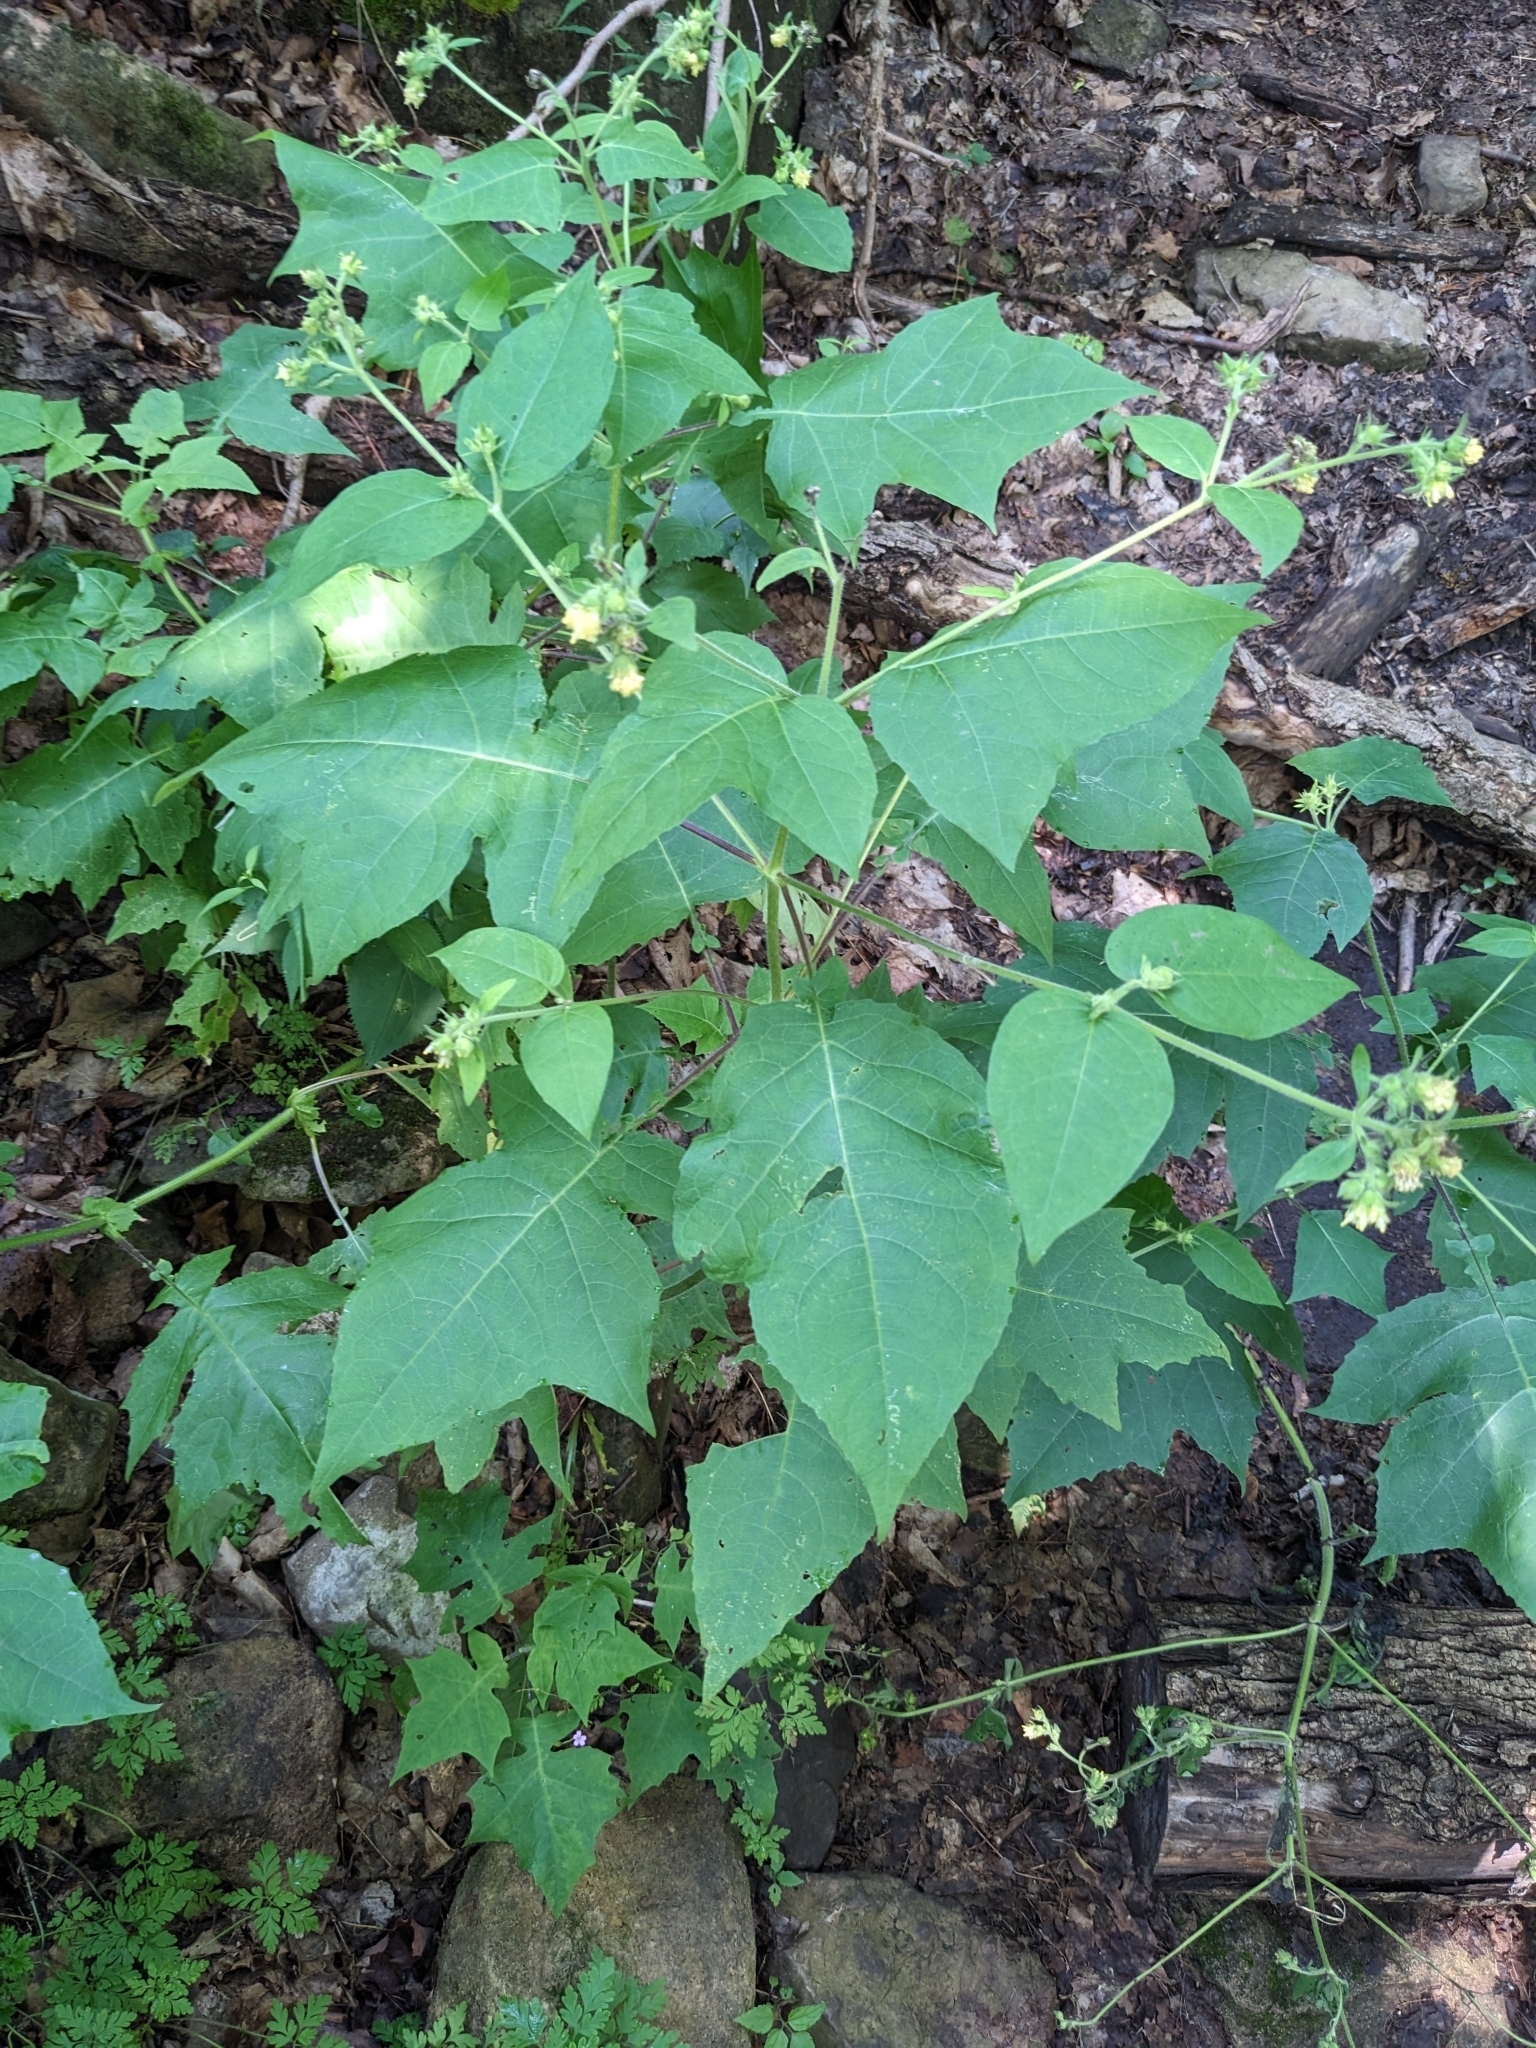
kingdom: Plantae
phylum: Tracheophyta
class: Magnoliopsida
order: Asterales
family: Asteraceae
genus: Polymnia
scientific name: Polymnia canadensis
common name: Pale-flowered leafcup
